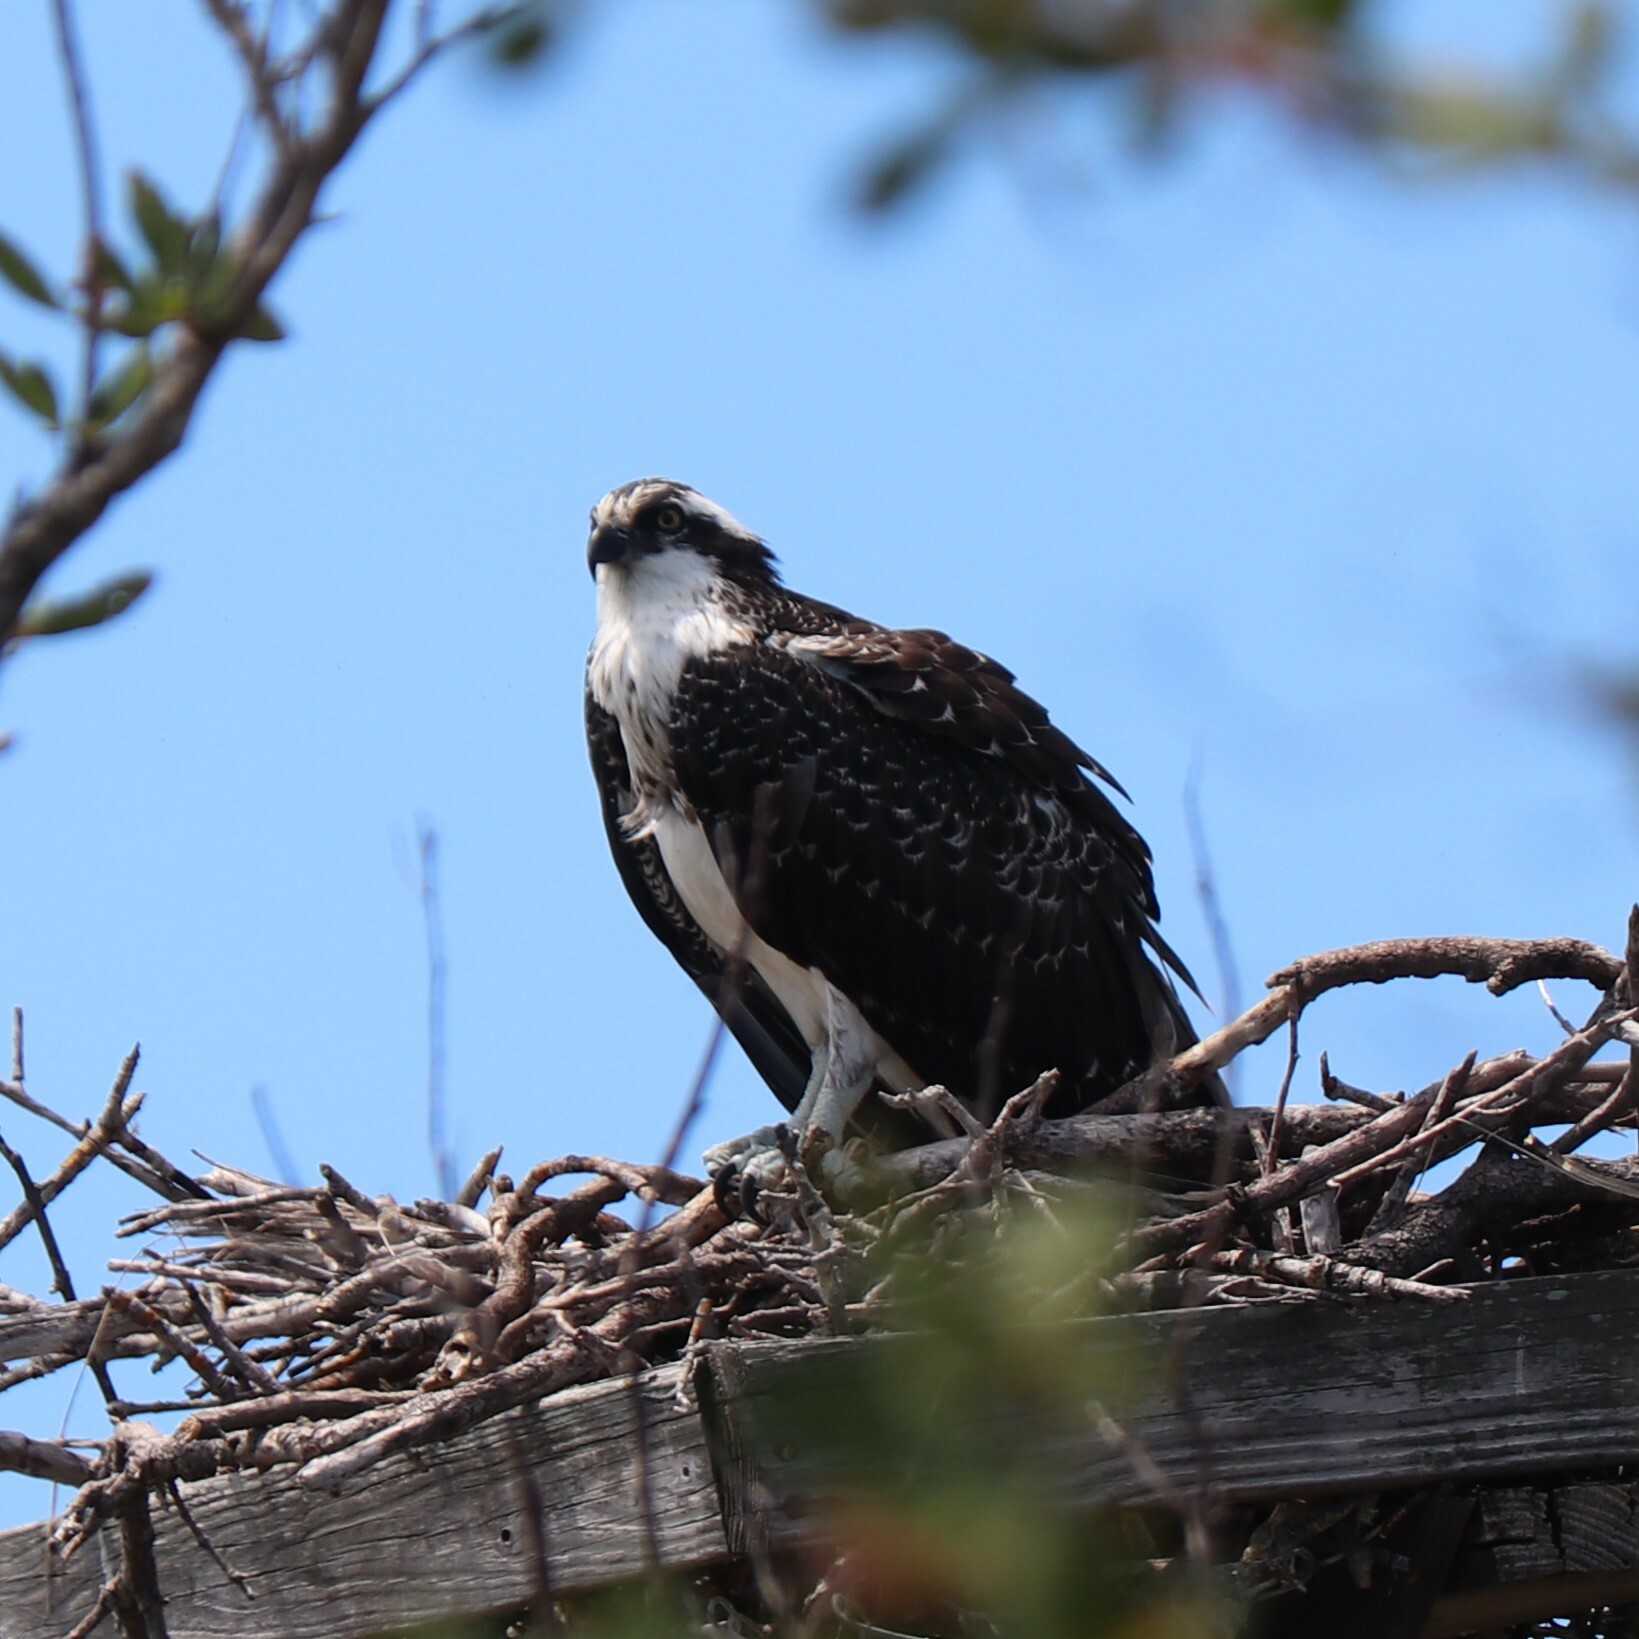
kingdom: Animalia
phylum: Chordata
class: Aves
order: Accipitriformes
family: Pandionidae
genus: Pandion
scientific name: Pandion haliaetus
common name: Osprey
